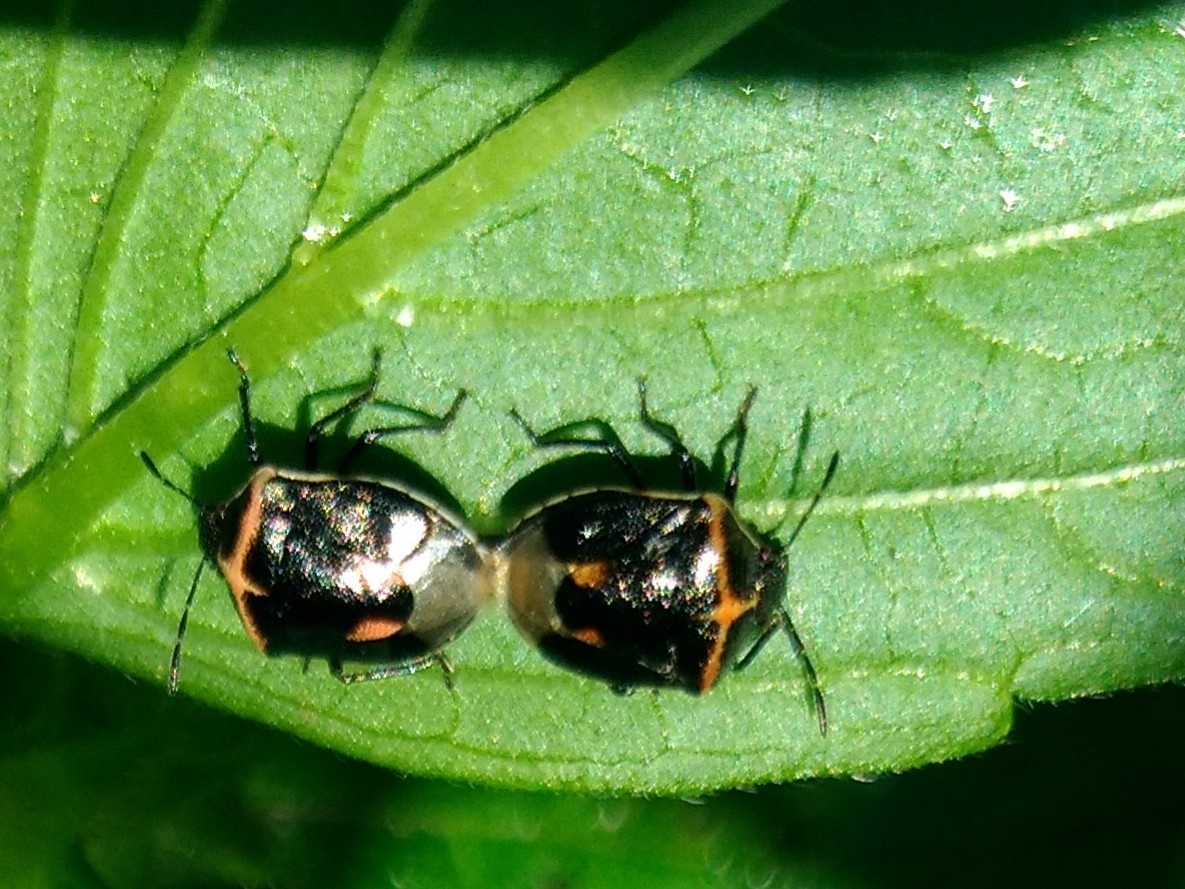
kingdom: Animalia
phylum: Arthropoda
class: Insecta
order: Hemiptera
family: Pentatomidae
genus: Cosmopepla
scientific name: Cosmopepla lintneriana
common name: Twice-stabbed stink bug
